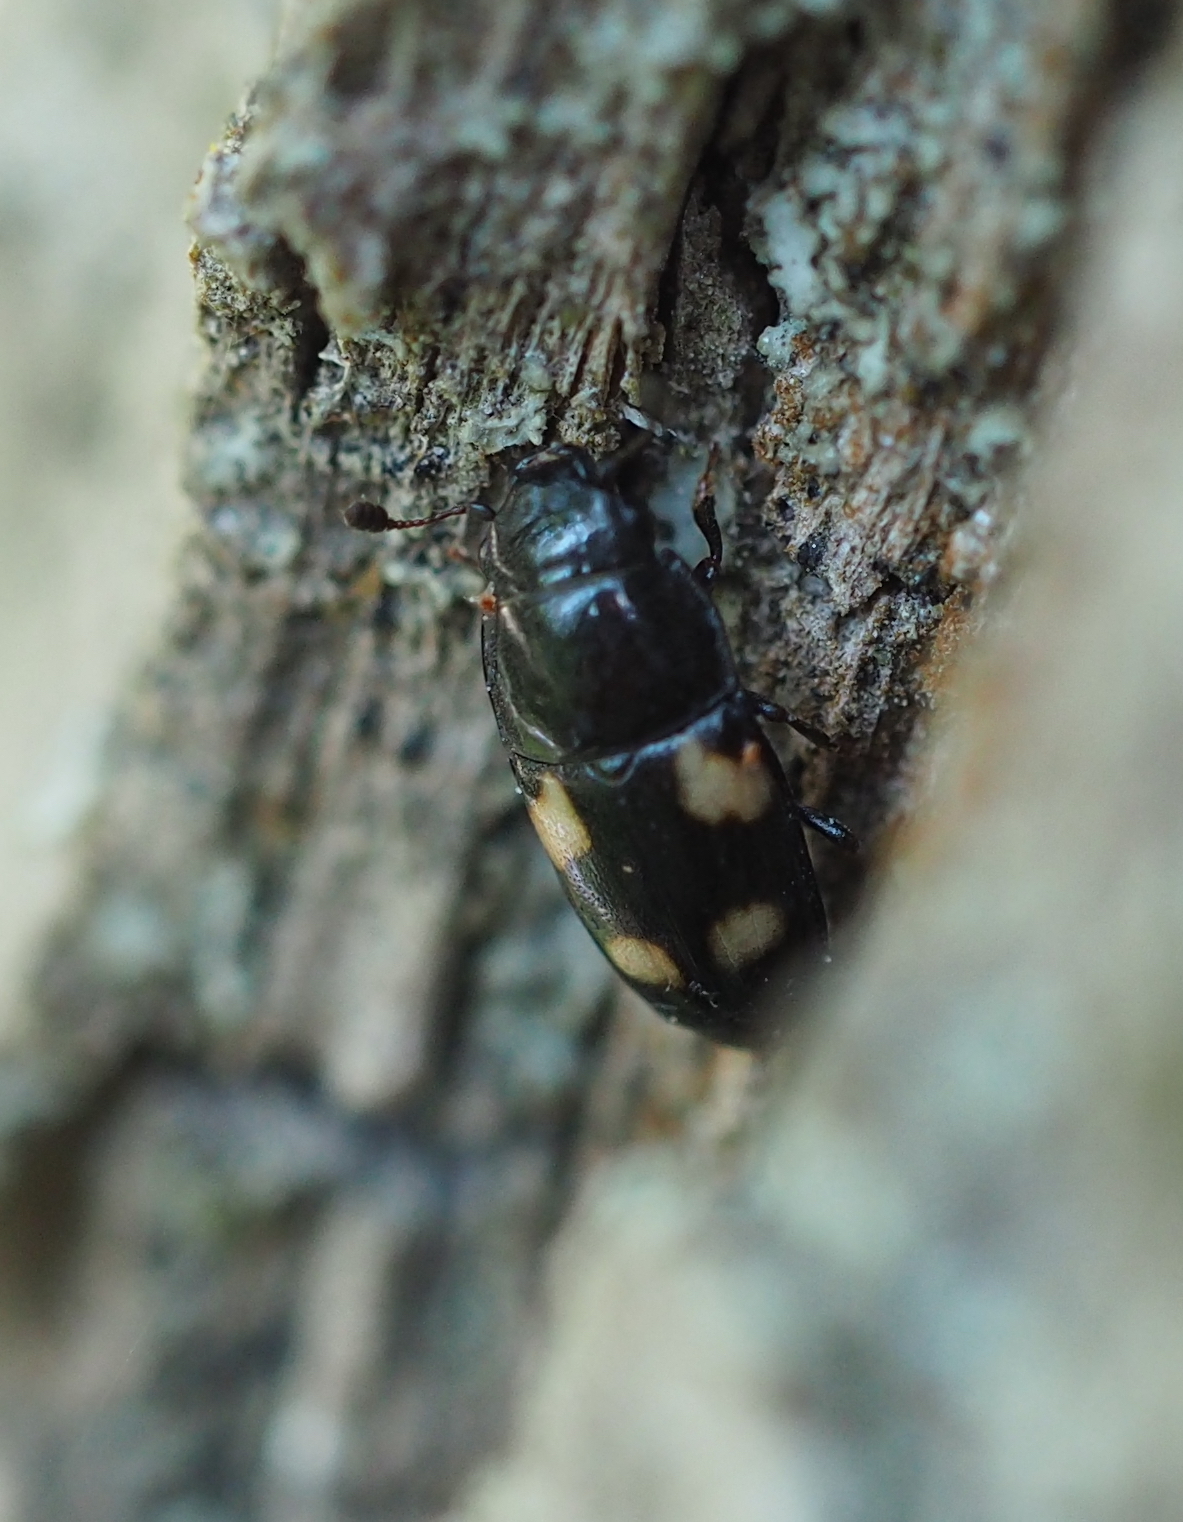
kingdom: Animalia
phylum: Arthropoda
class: Insecta
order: Coleoptera
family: Nitidulidae
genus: Glischrochilus
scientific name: Glischrochilus quadrisignatus
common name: Picnic beetle
